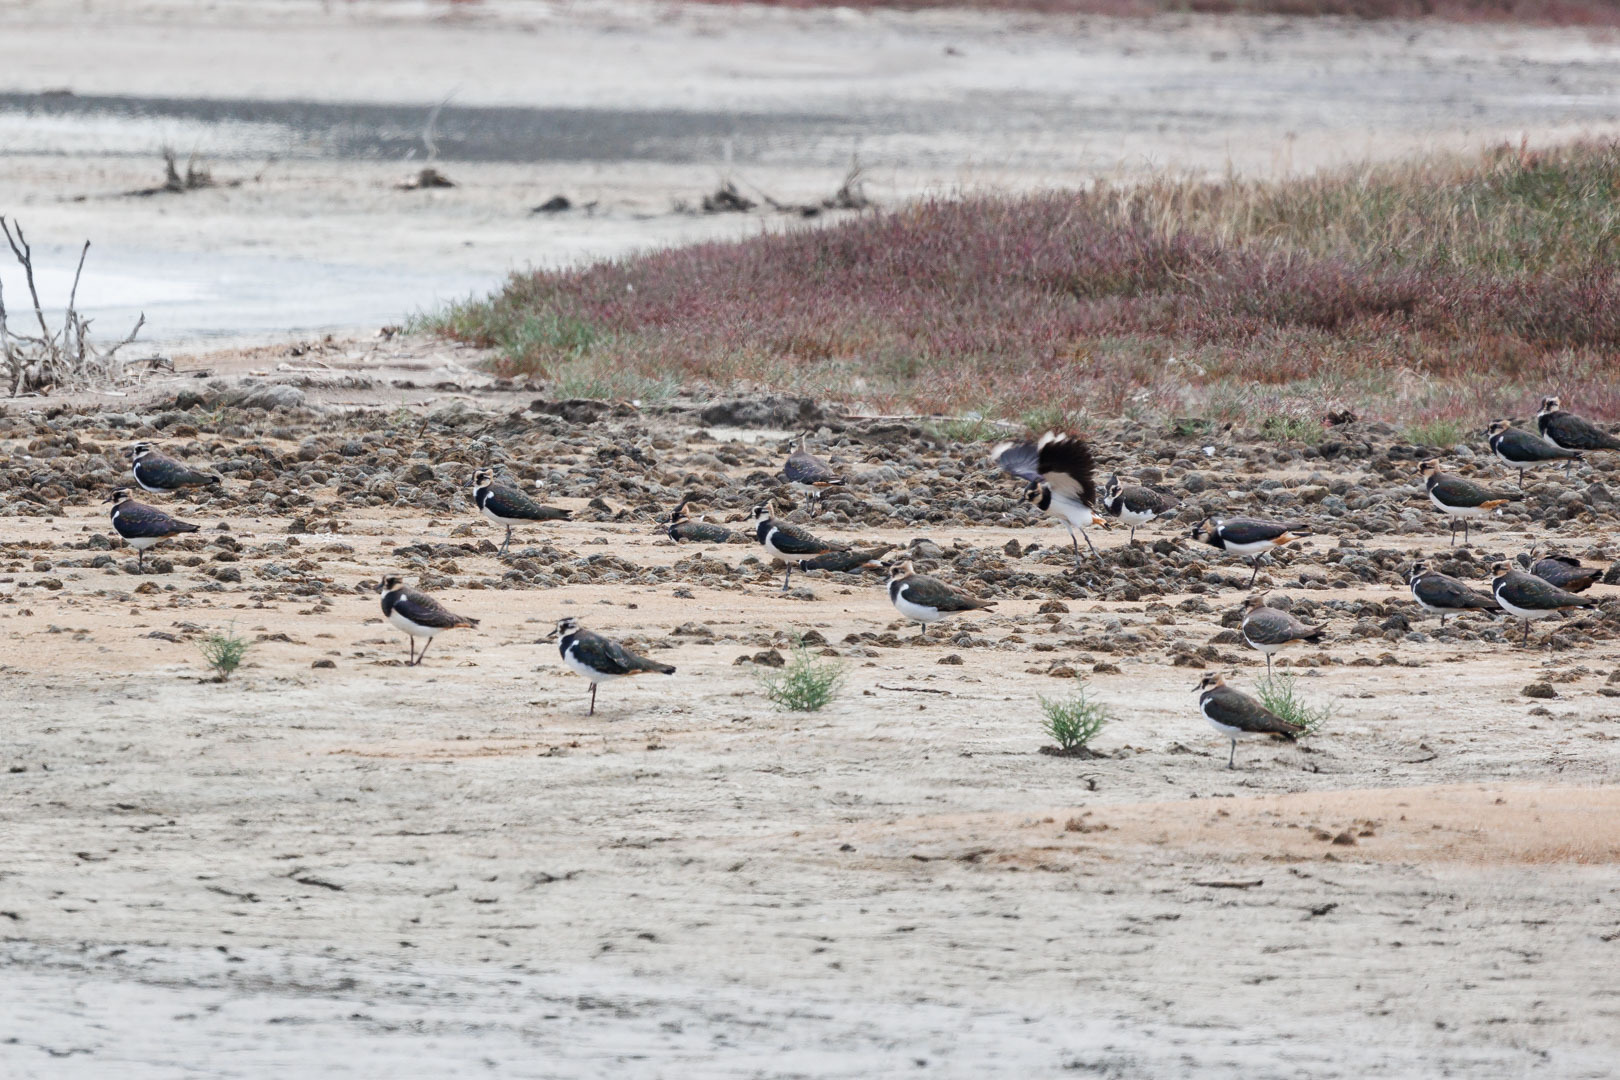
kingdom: Animalia
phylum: Chordata
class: Aves
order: Charadriiformes
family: Charadriidae
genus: Vanellus
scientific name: Vanellus vanellus
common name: Northern lapwing
